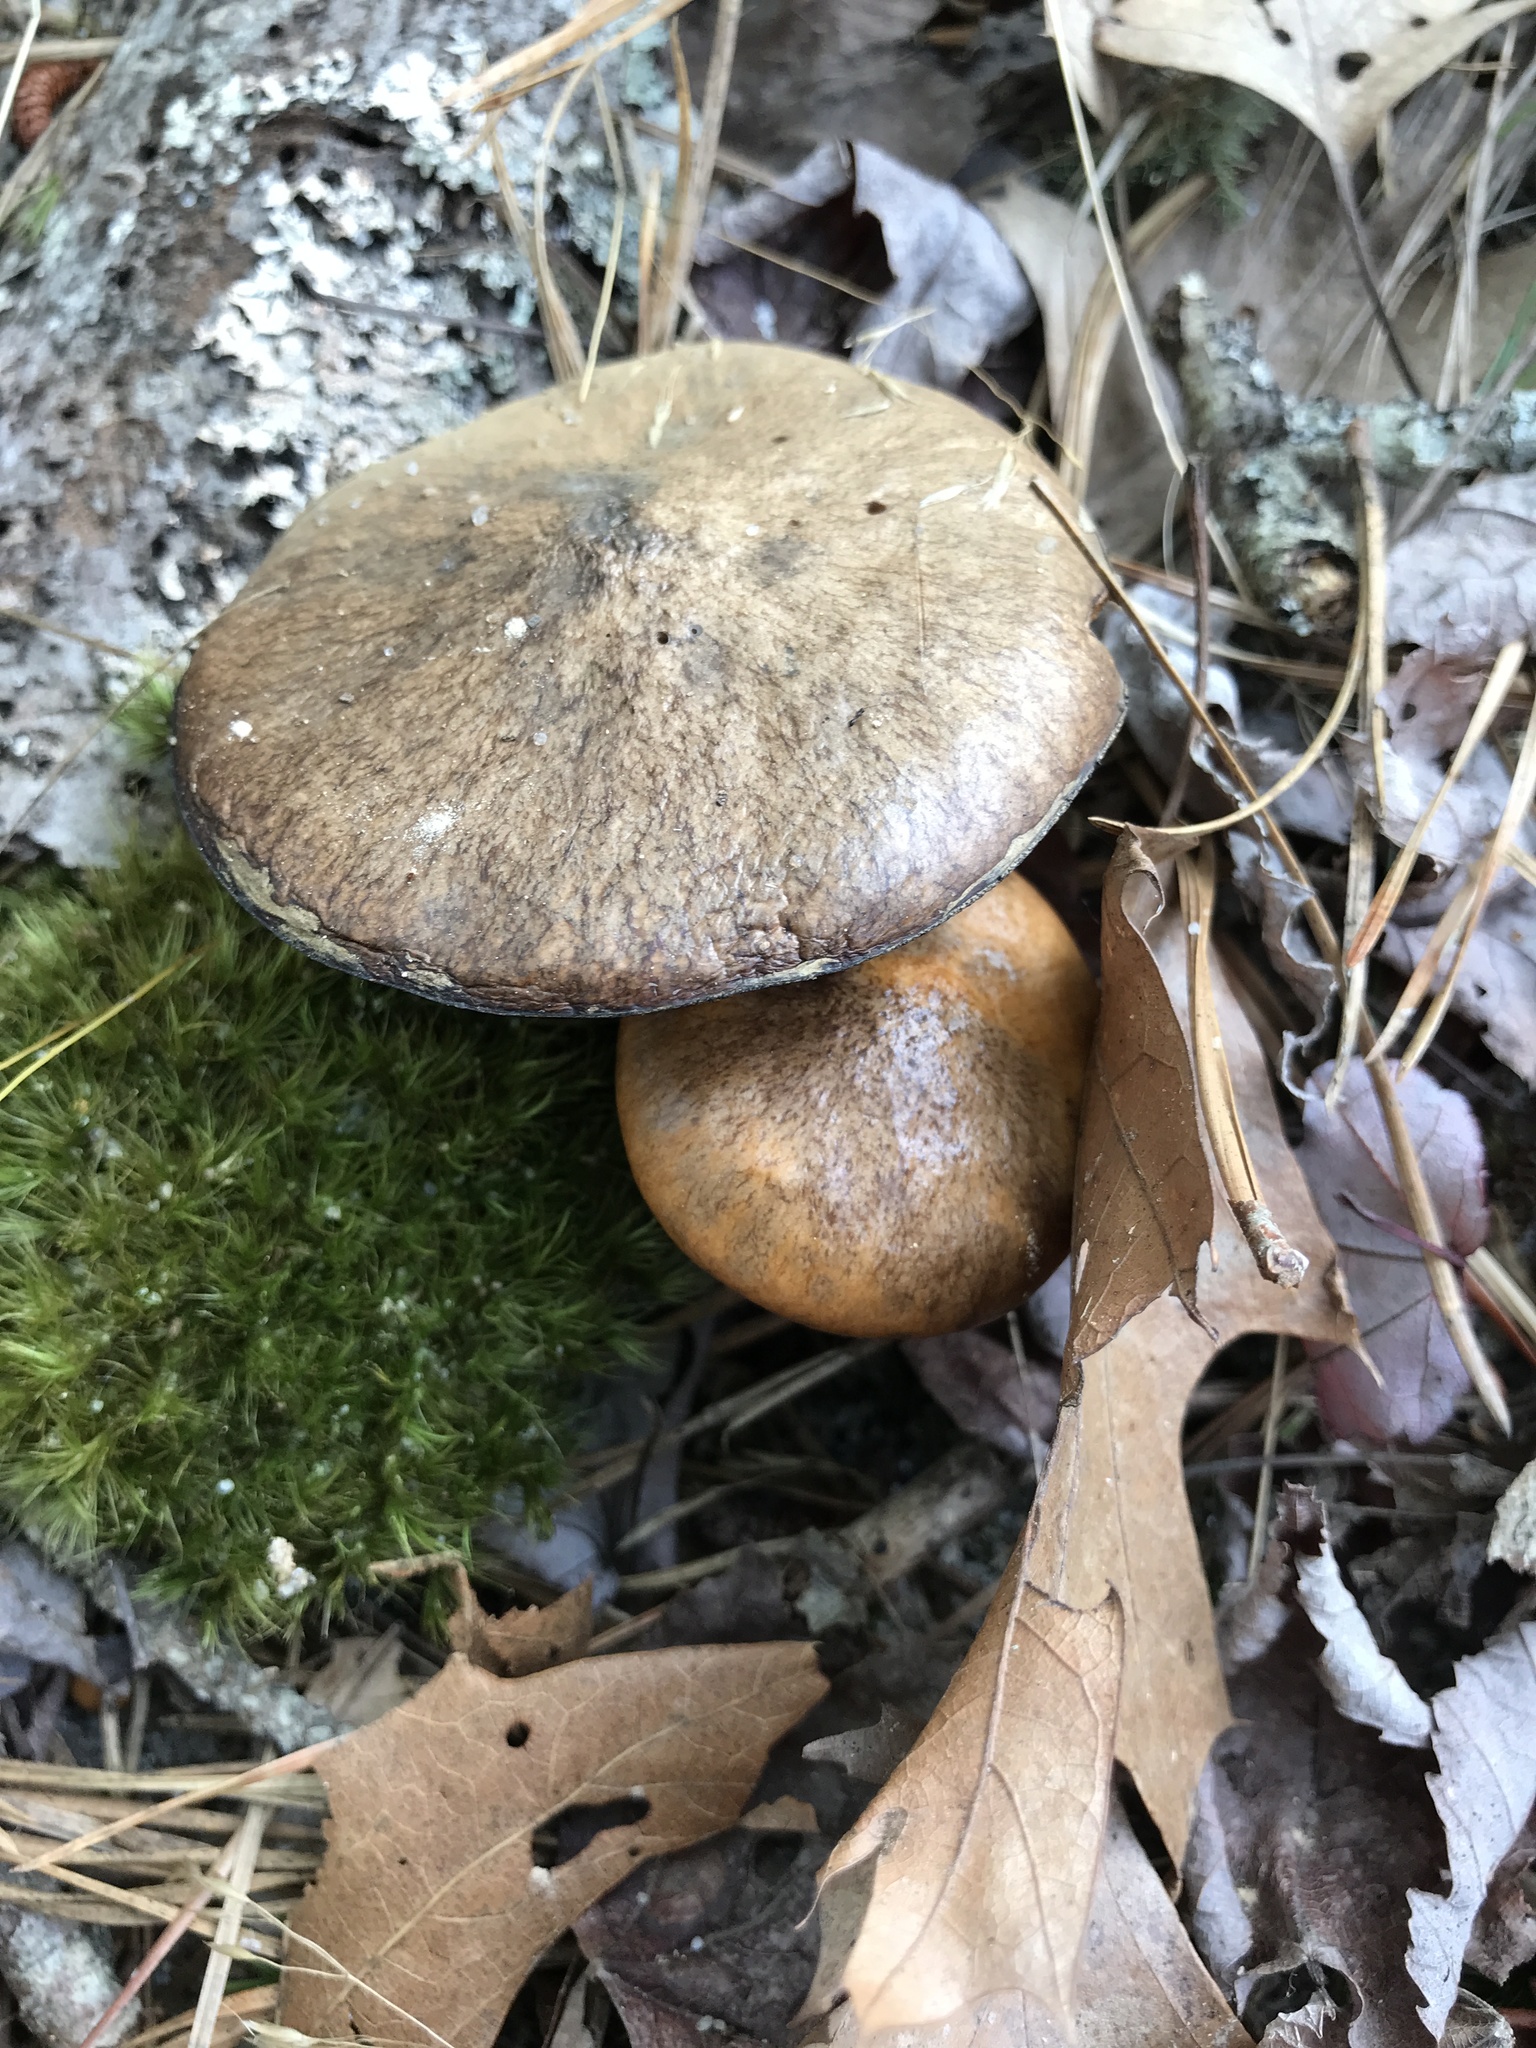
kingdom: Fungi
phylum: Basidiomycota
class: Agaricomycetes
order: Boletales
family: Suillaceae
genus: Suillus
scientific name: Suillus salmonicolor
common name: Slippery jill
